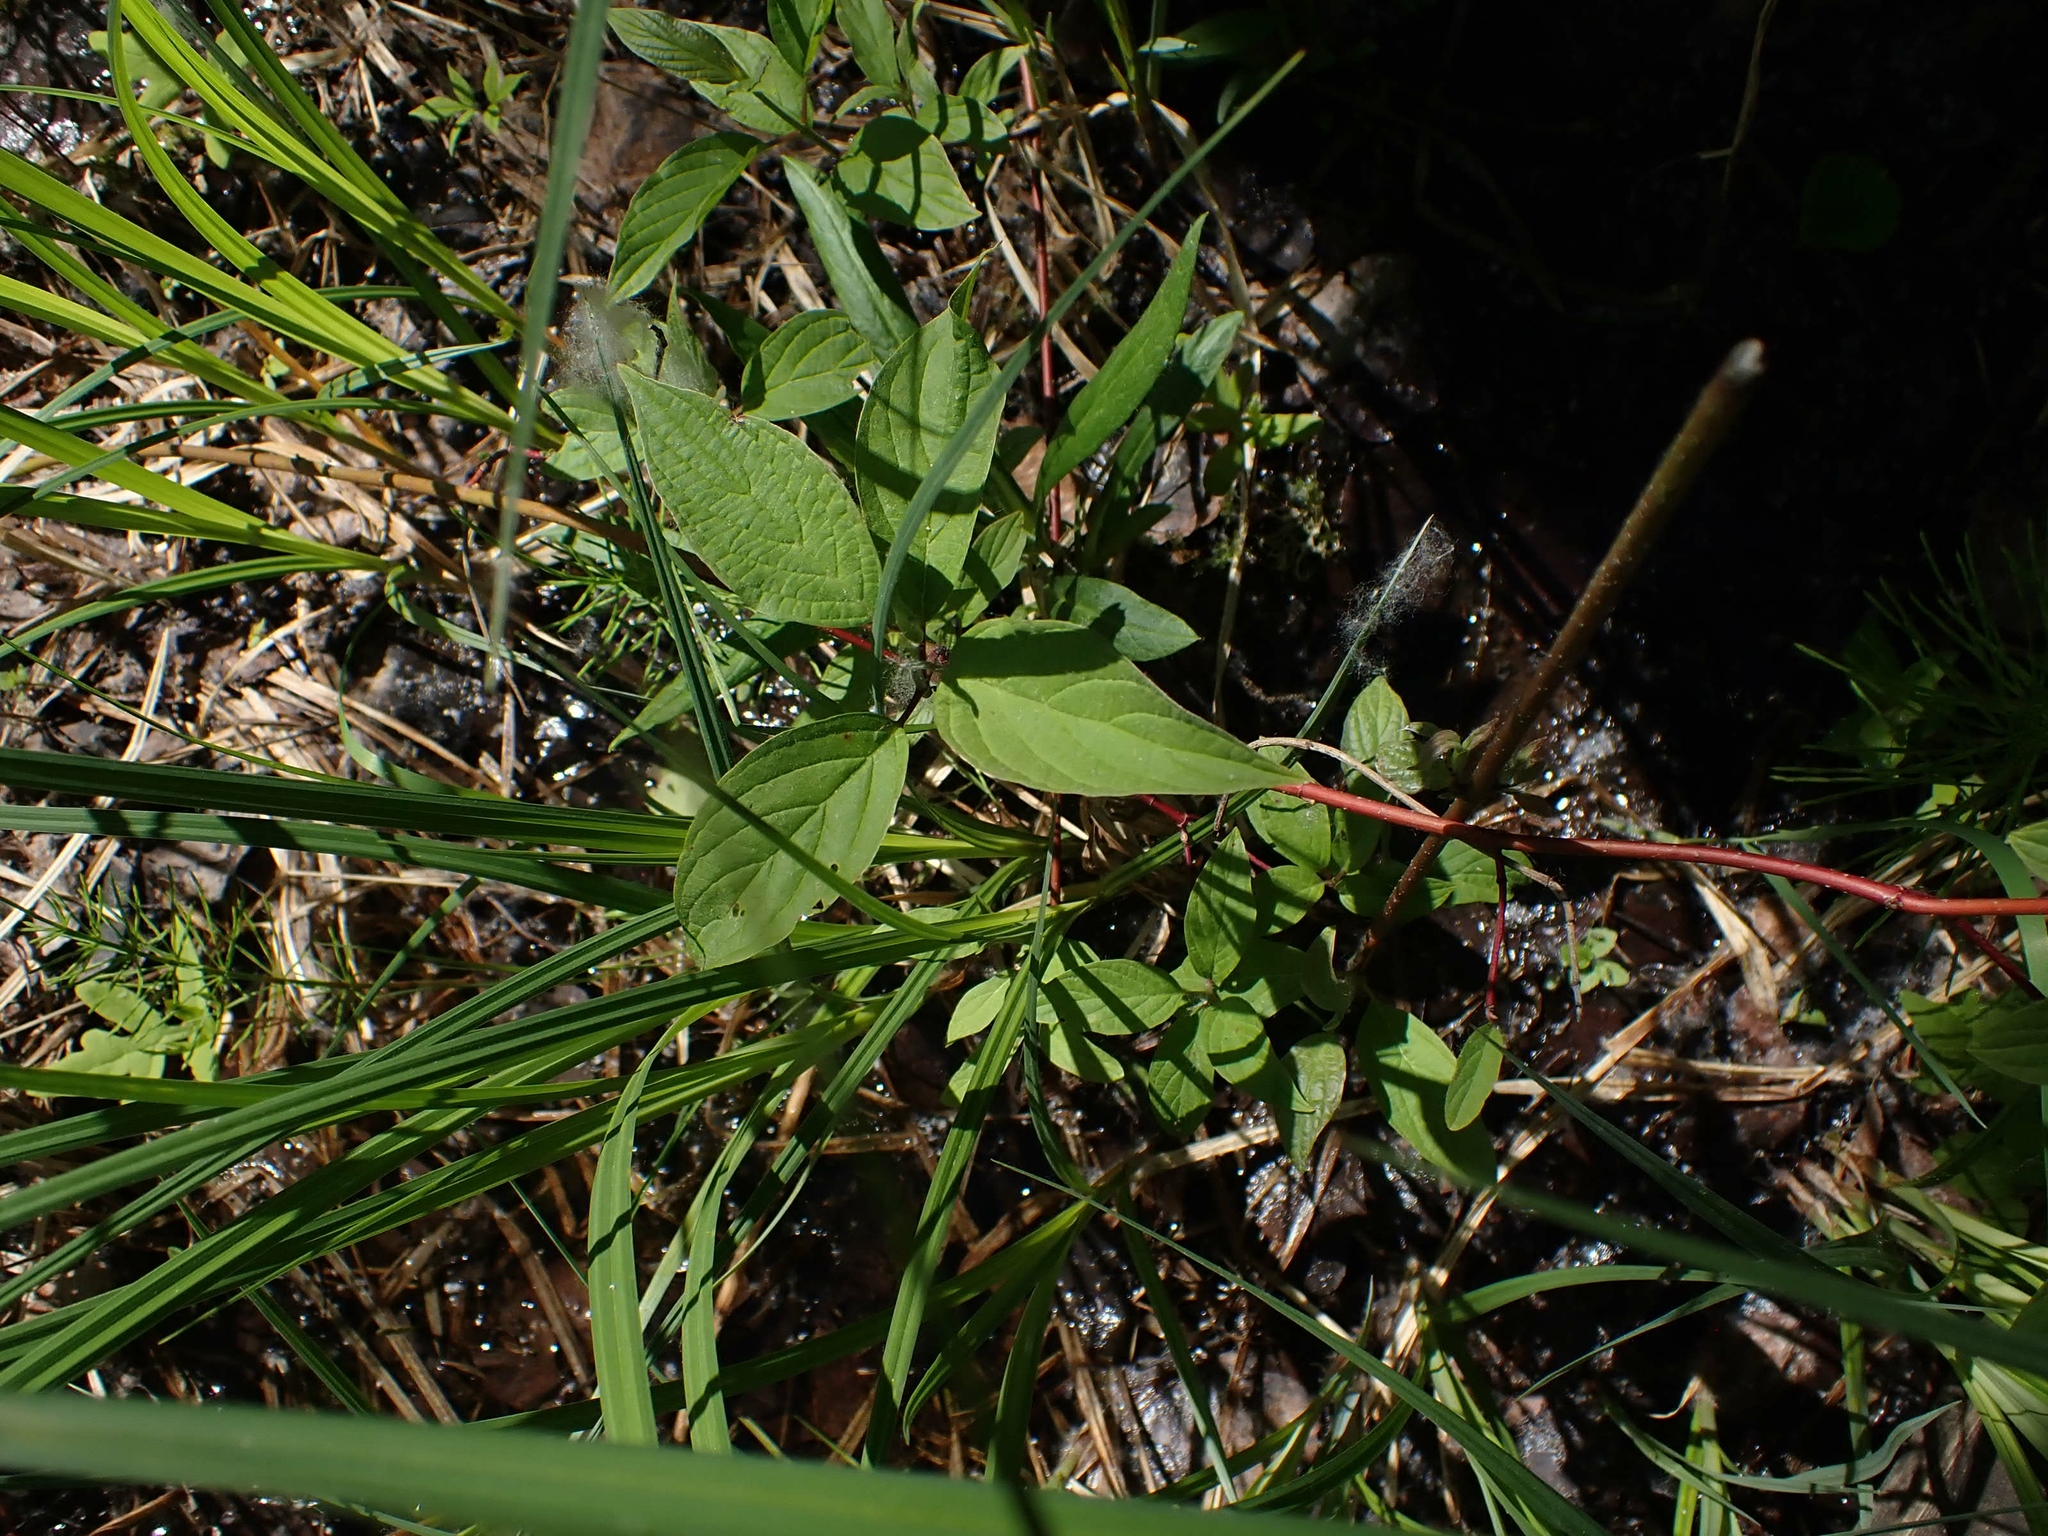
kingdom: Plantae
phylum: Tracheophyta
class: Magnoliopsida
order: Cornales
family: Cornaceae
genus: Cornus
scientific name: Cornus sericea
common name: Red-osier dogwood
